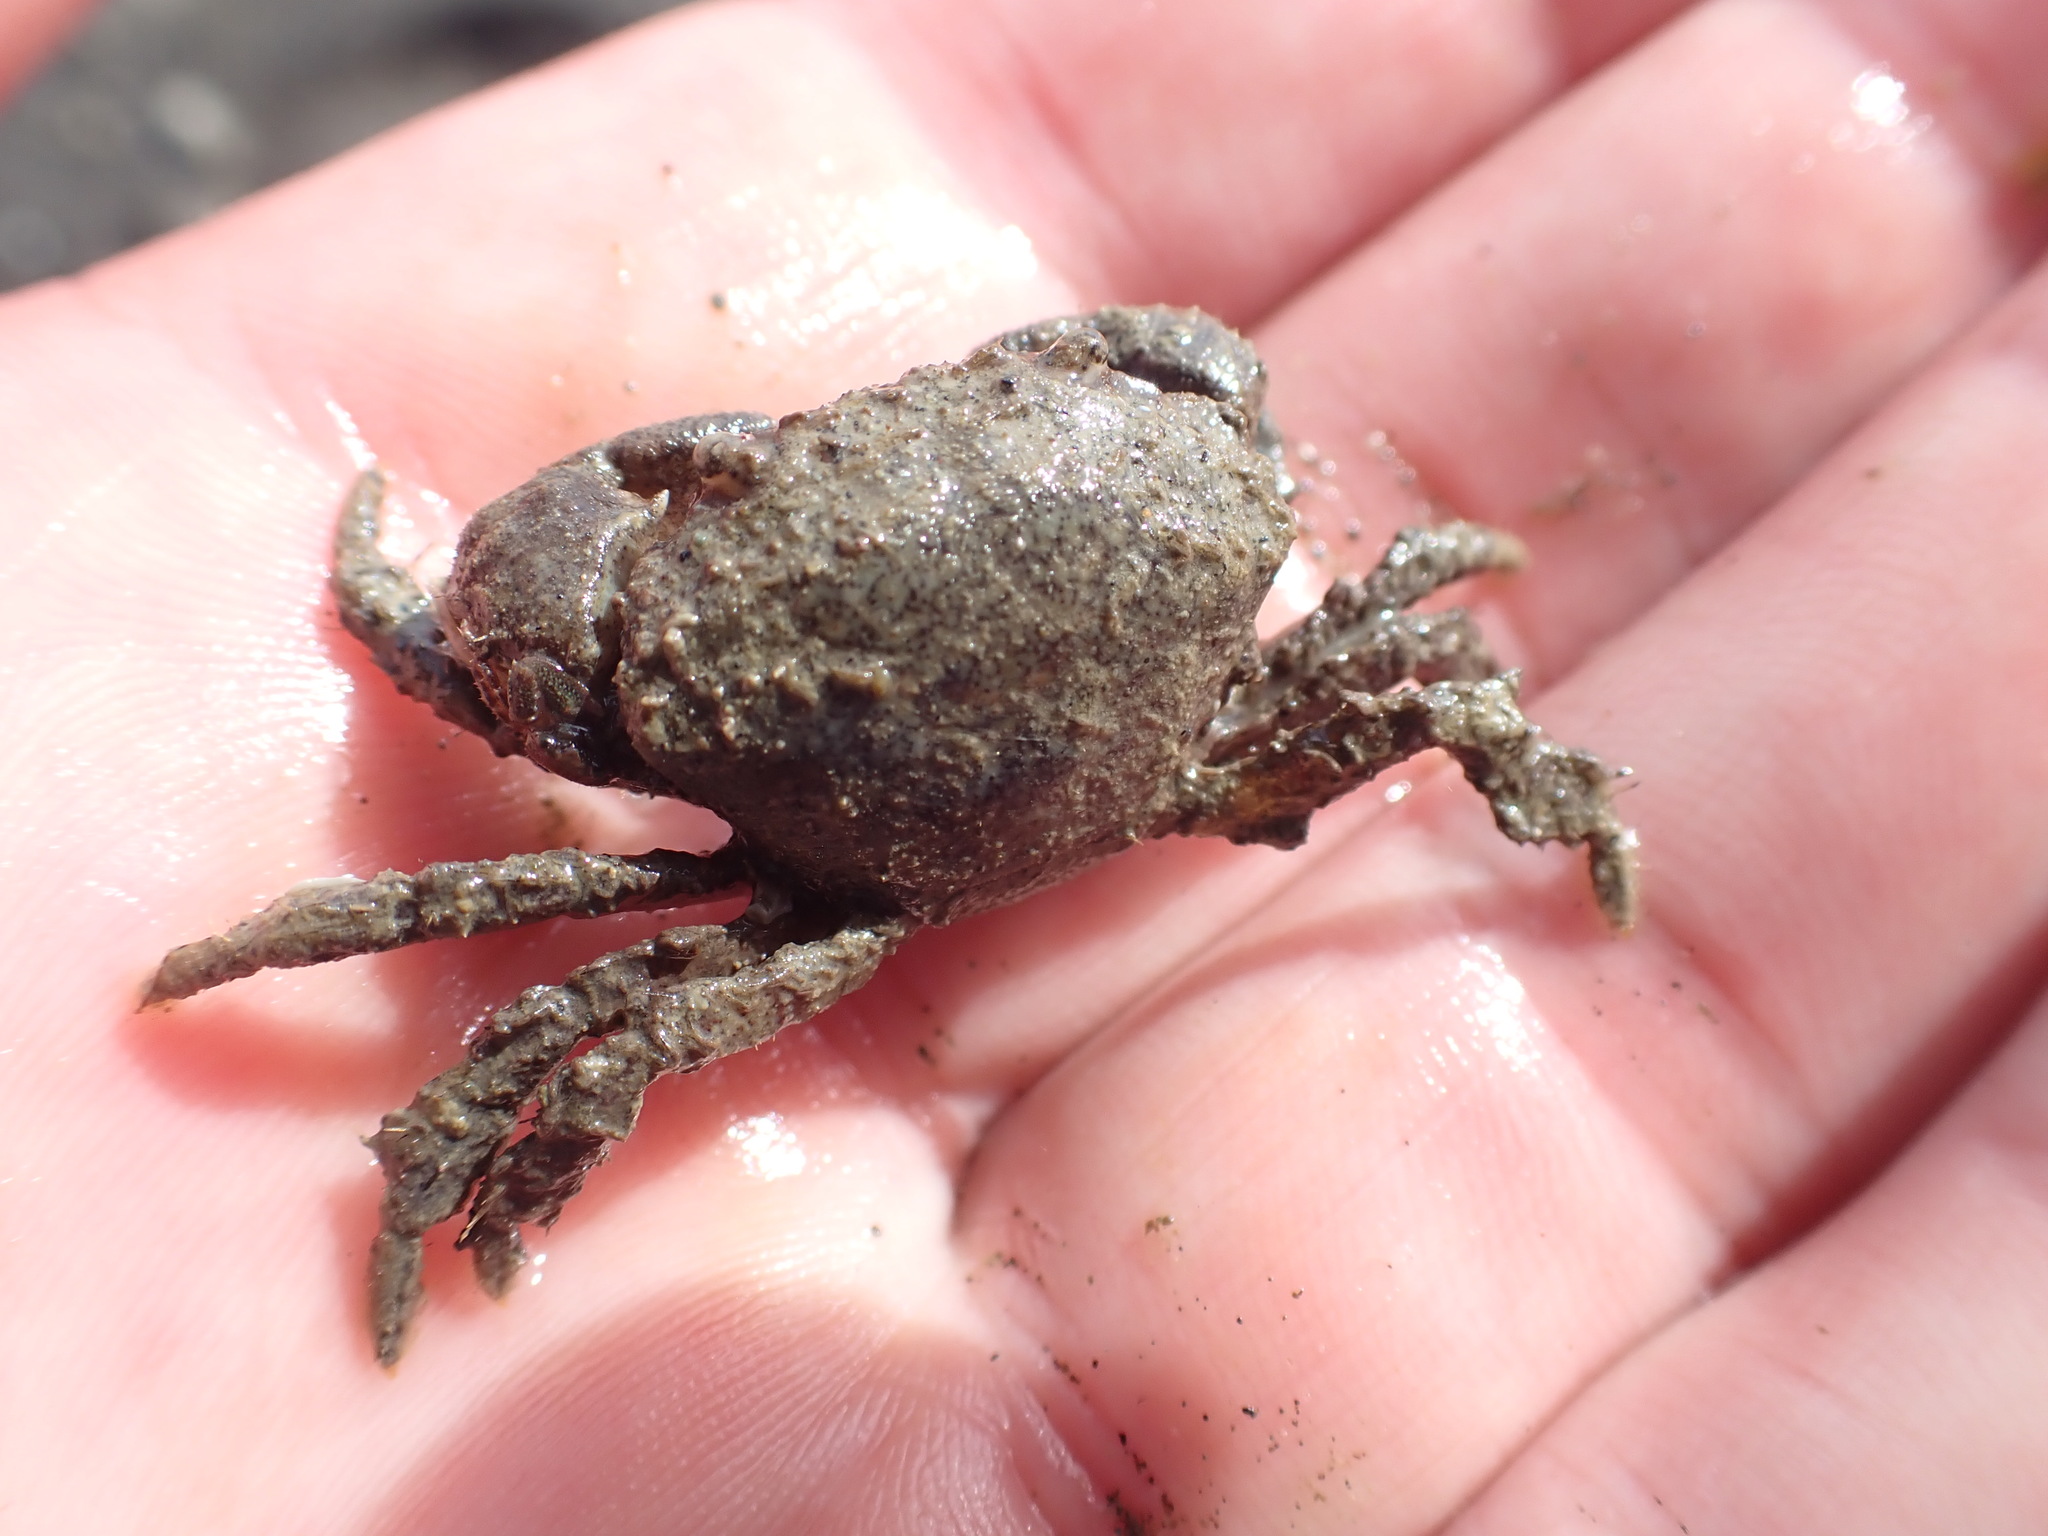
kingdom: Animalia
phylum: Arthropoda
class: Malacostraca
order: Decapoda
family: Pilumnidae
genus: Pilumnopeus
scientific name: Pilumnopeus serratifrons
